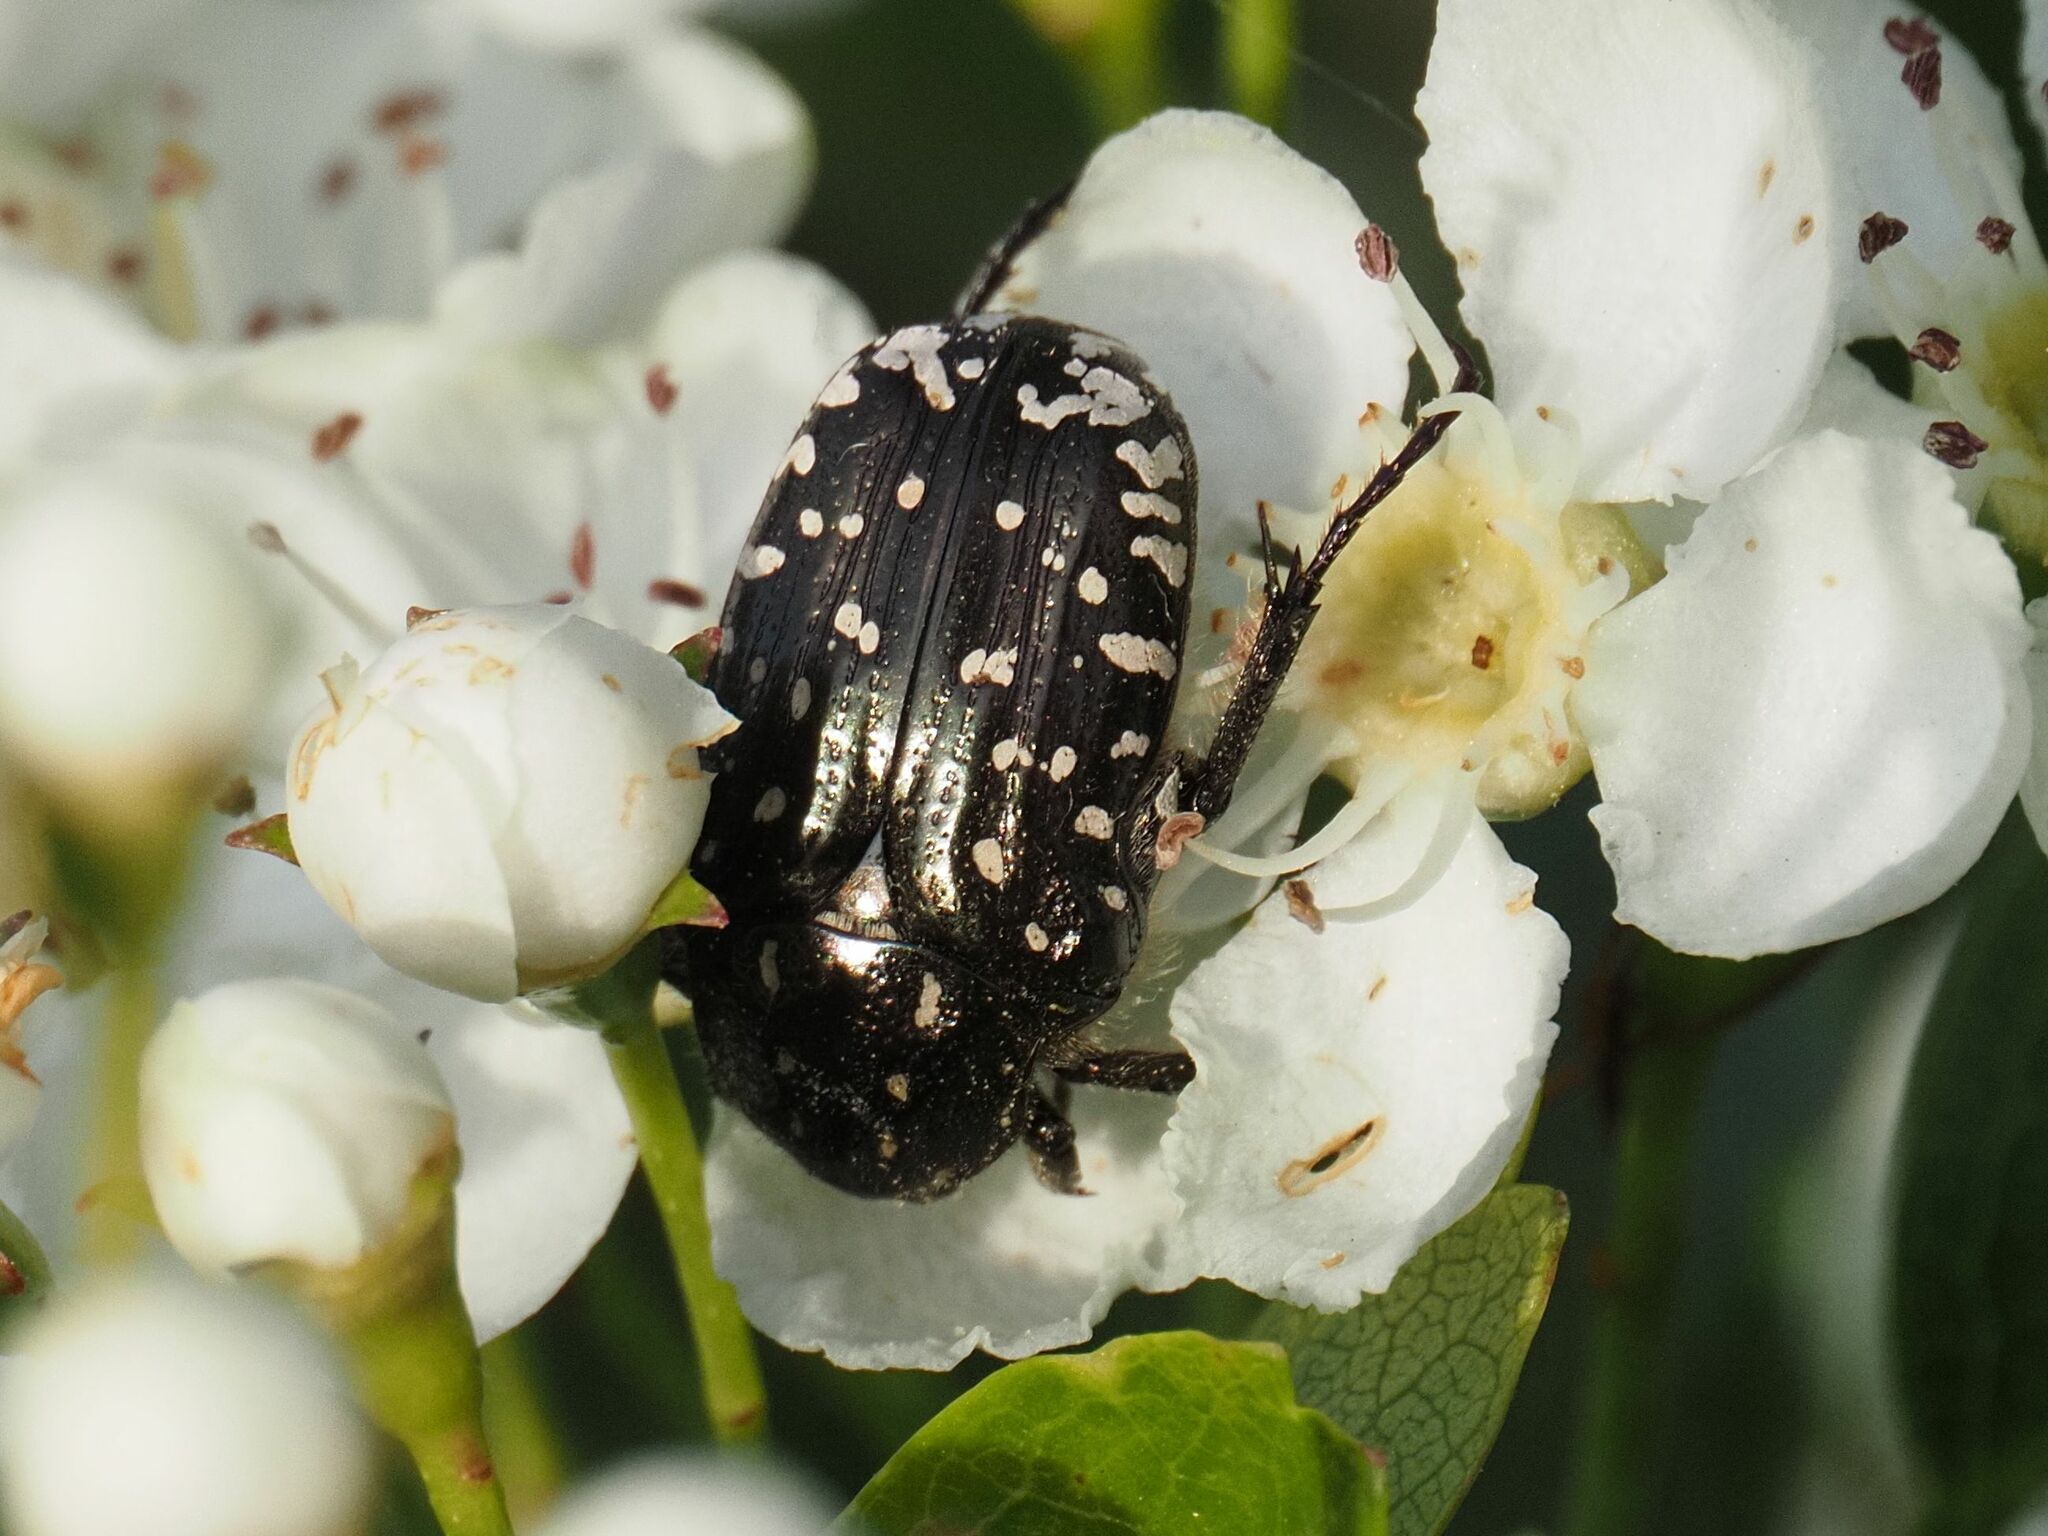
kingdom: Animalia
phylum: Arthropoda
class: Insecta
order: Coleoptera
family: Scarabaeidae
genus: Oxythyrea
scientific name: Oxythyrea funesta
